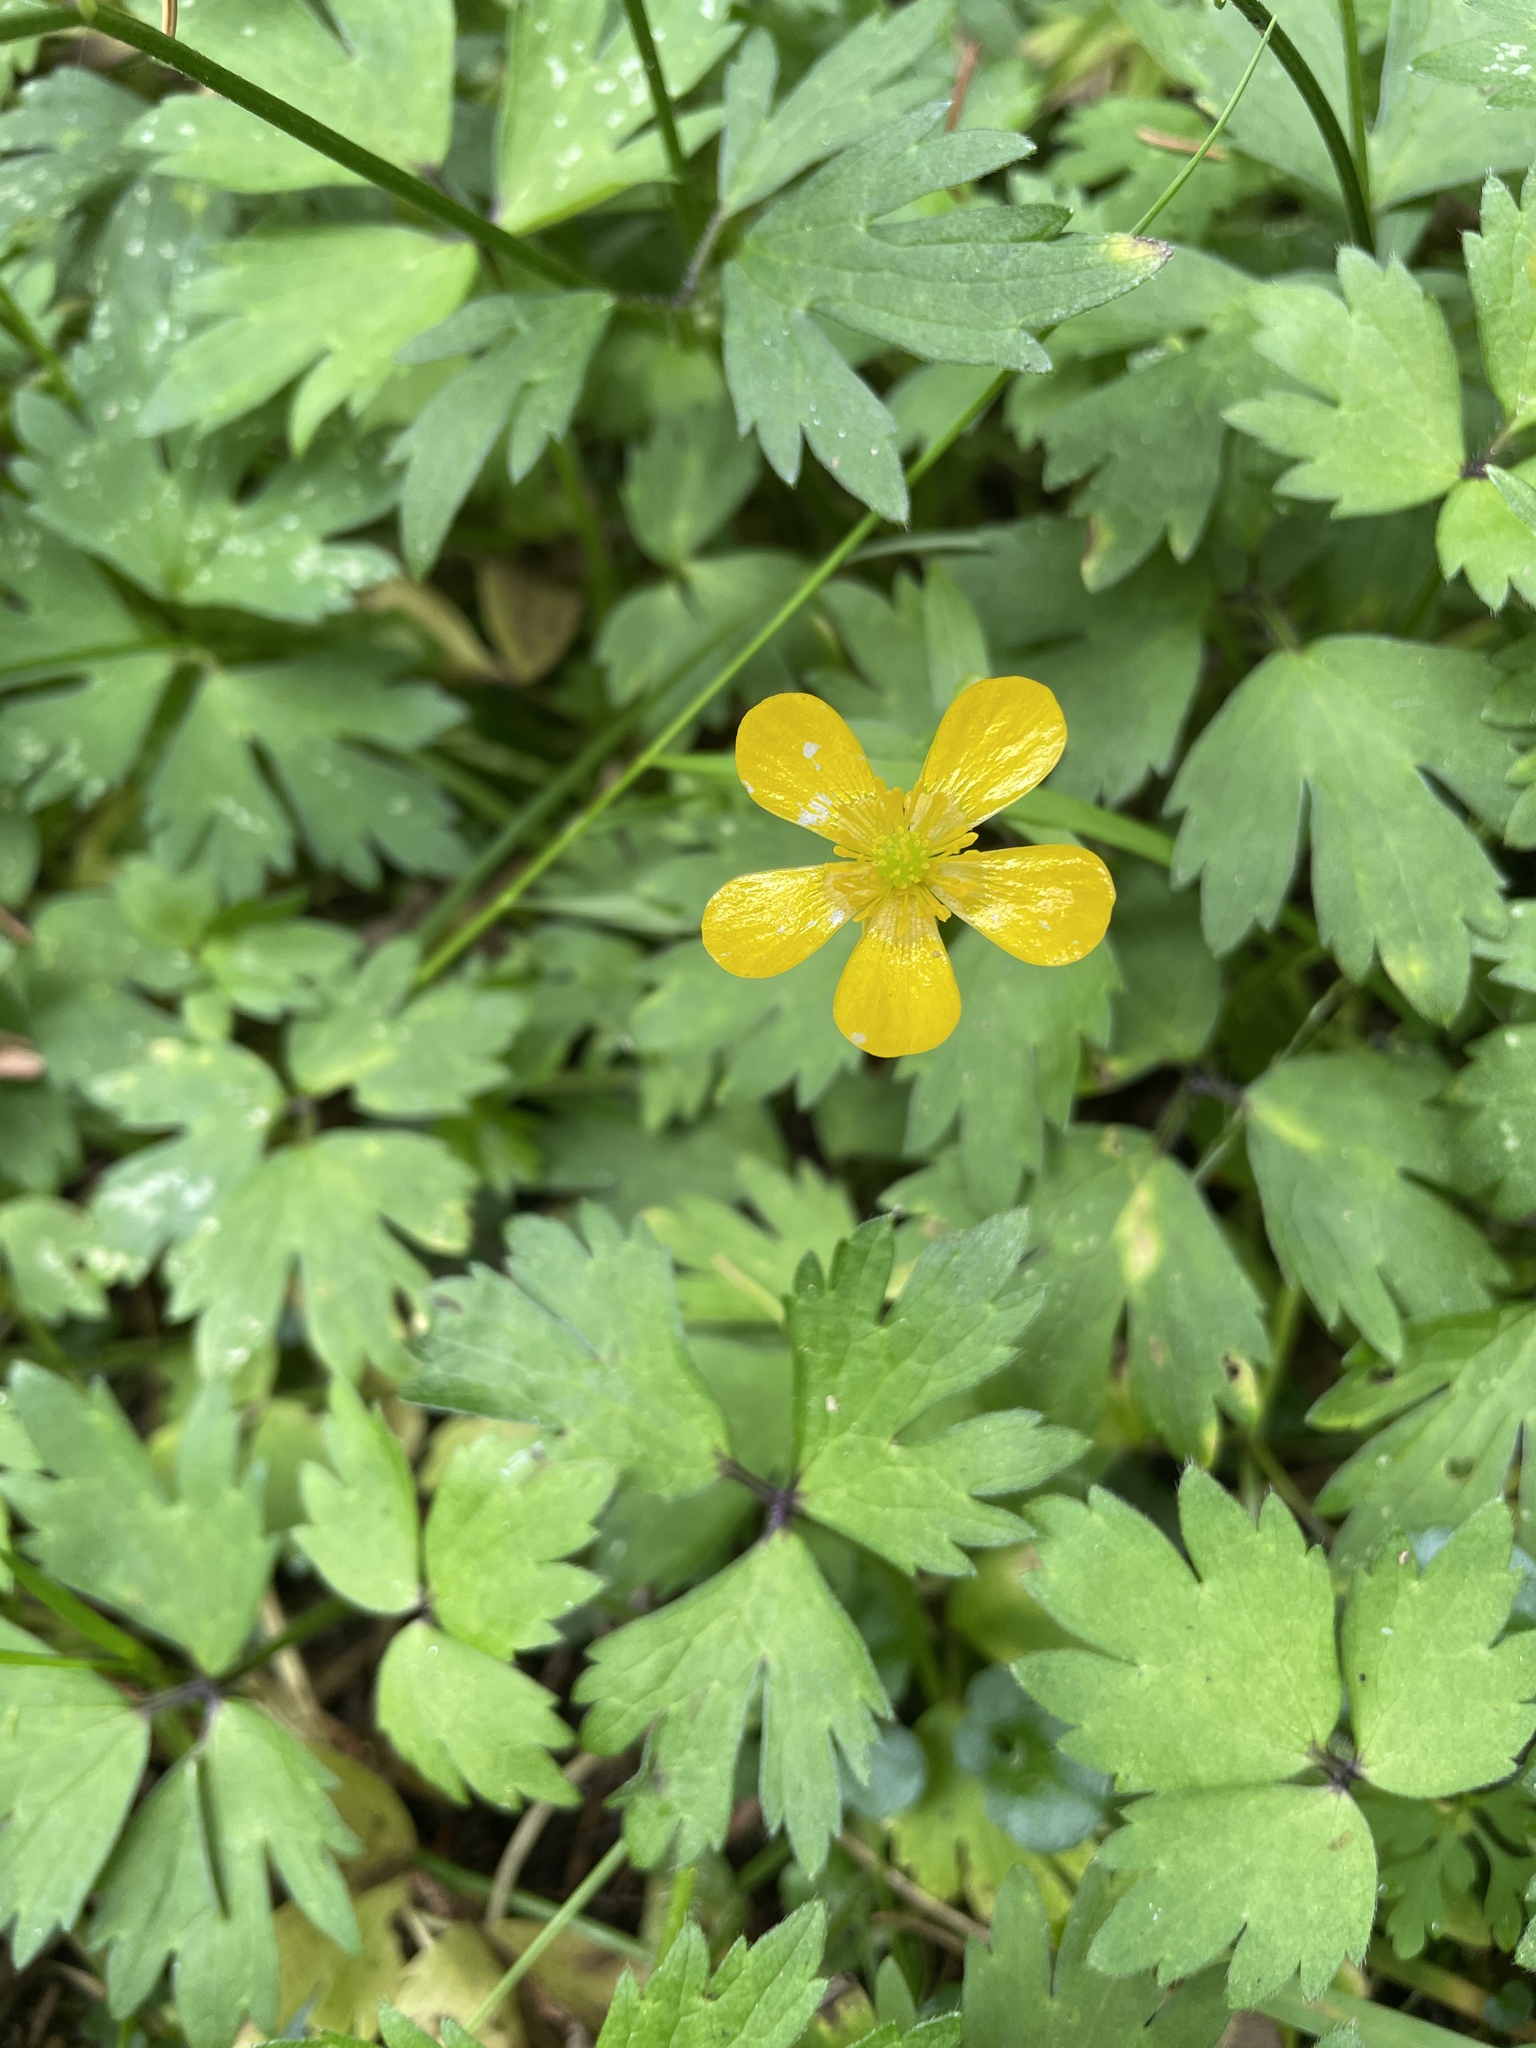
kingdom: Plantae
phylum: Tracheophyta
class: Magnoliopsida
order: Ranunculales
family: Ranunculaceae
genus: Ranunculus
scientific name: Ranunculus repens
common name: Creeping buttercup
